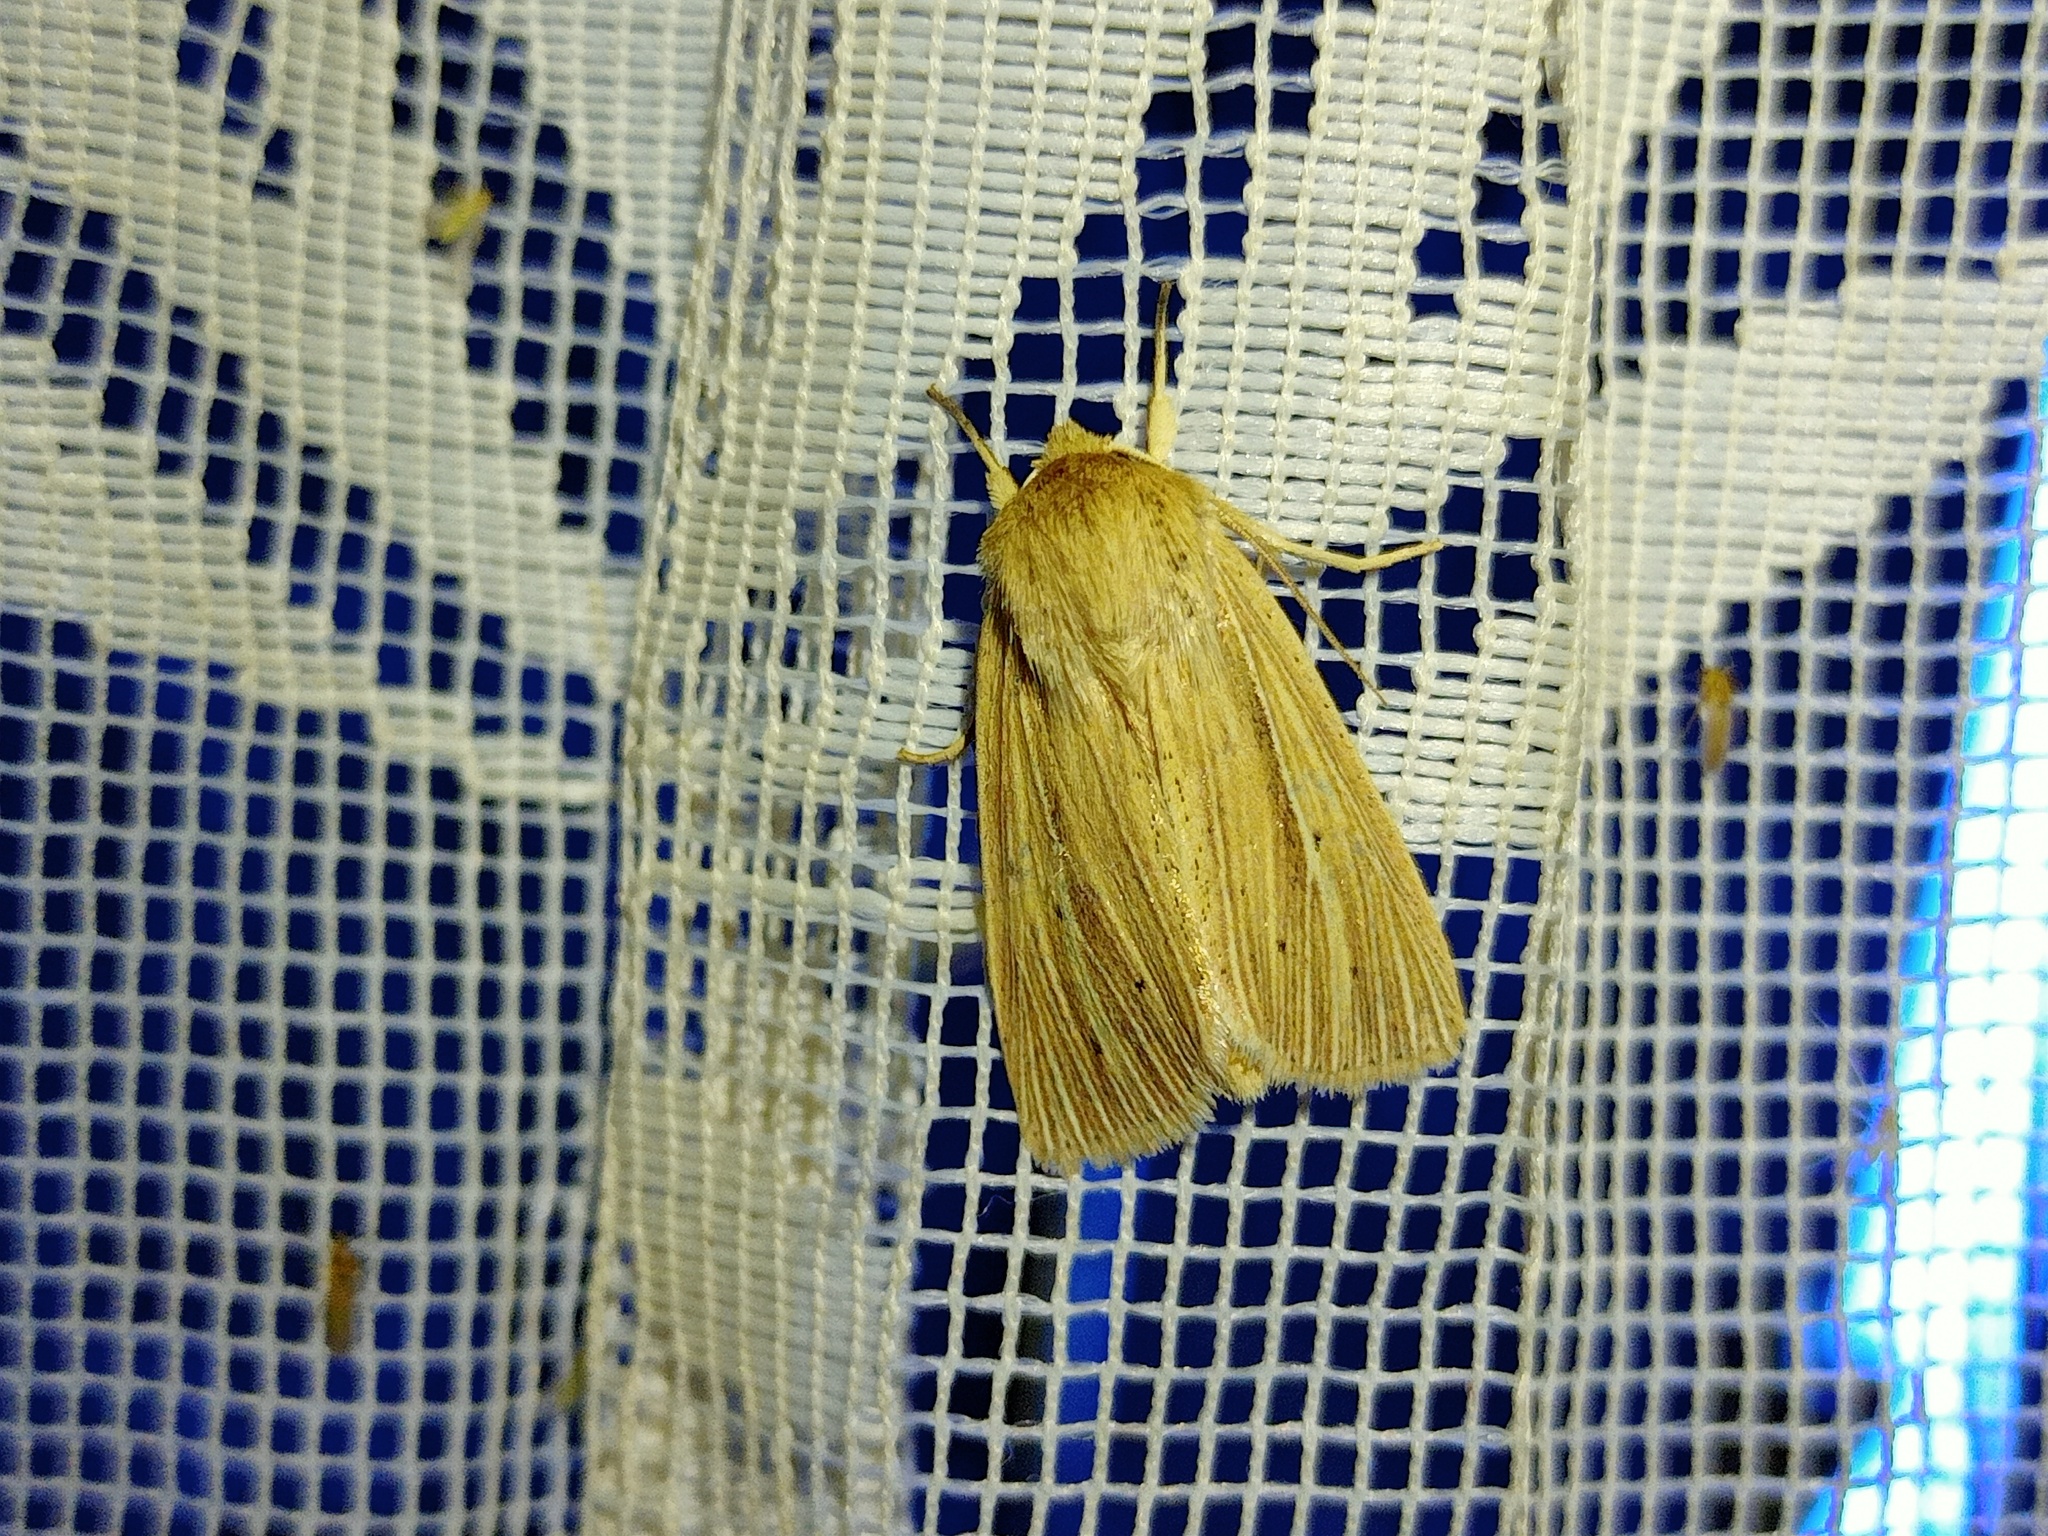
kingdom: Animalia
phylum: Arthropoda
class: Insecta
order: Lepidoptera
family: Noctuidae
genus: Mythimna
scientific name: Mythimna impura
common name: Smoky wainscot
